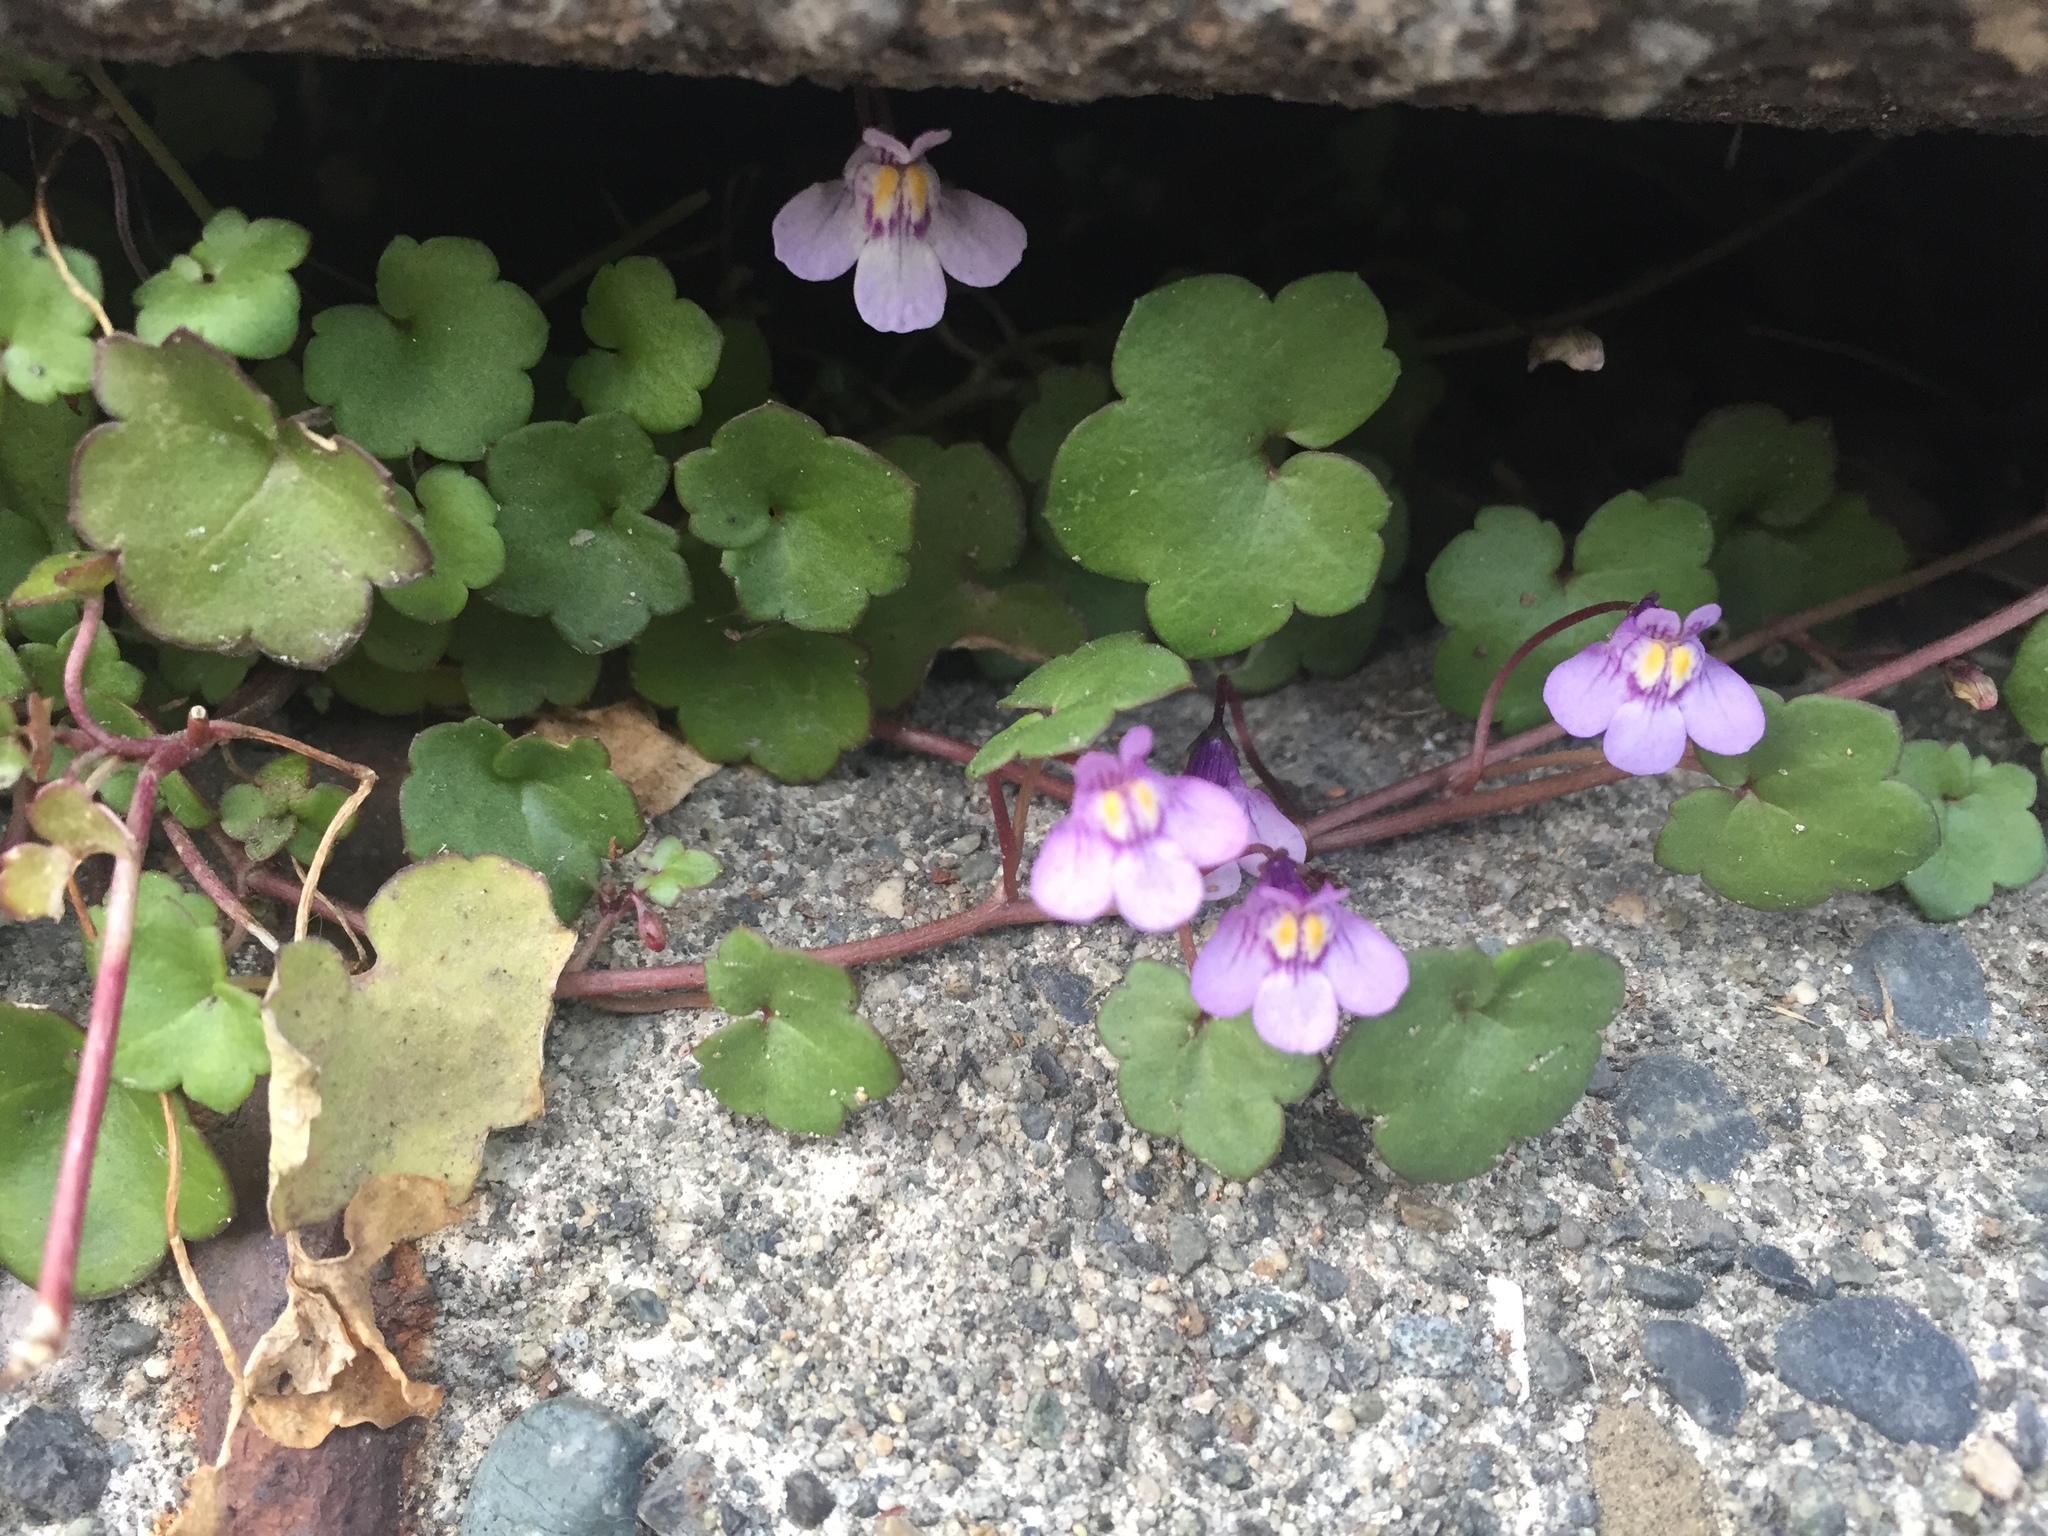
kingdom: Plantae
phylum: Tracheophyta
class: Magnoliopsida
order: Lamiales
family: Plantaginaceae
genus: Cymbalaria
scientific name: Cymbalaria muralis
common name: Ivy-leaved toadflax
